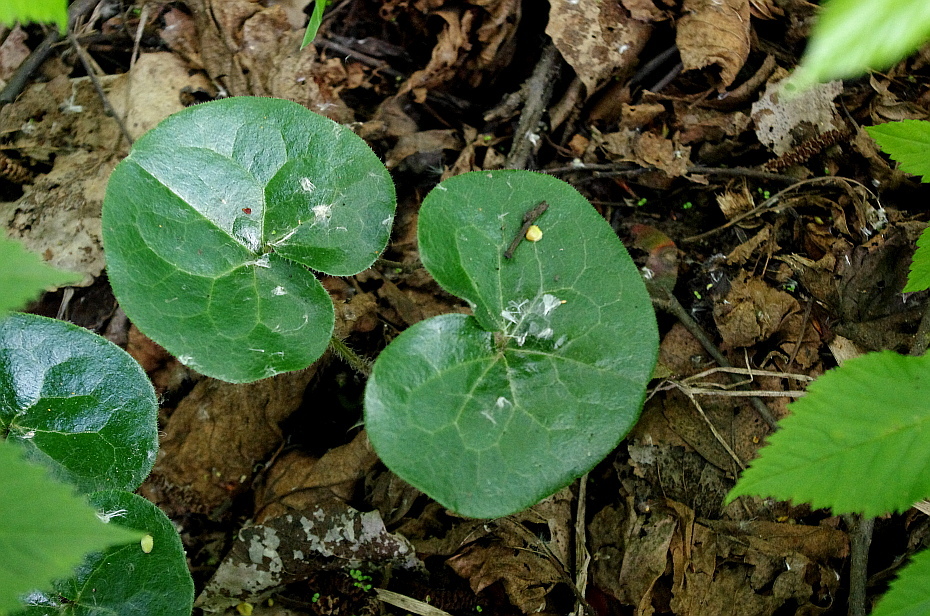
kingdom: Plantae
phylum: Tracheophyta
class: Magnoliopsida
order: Piperales
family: Aristolochiaceae
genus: Asarum
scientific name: Asarum europaeum
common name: Asarabacca
